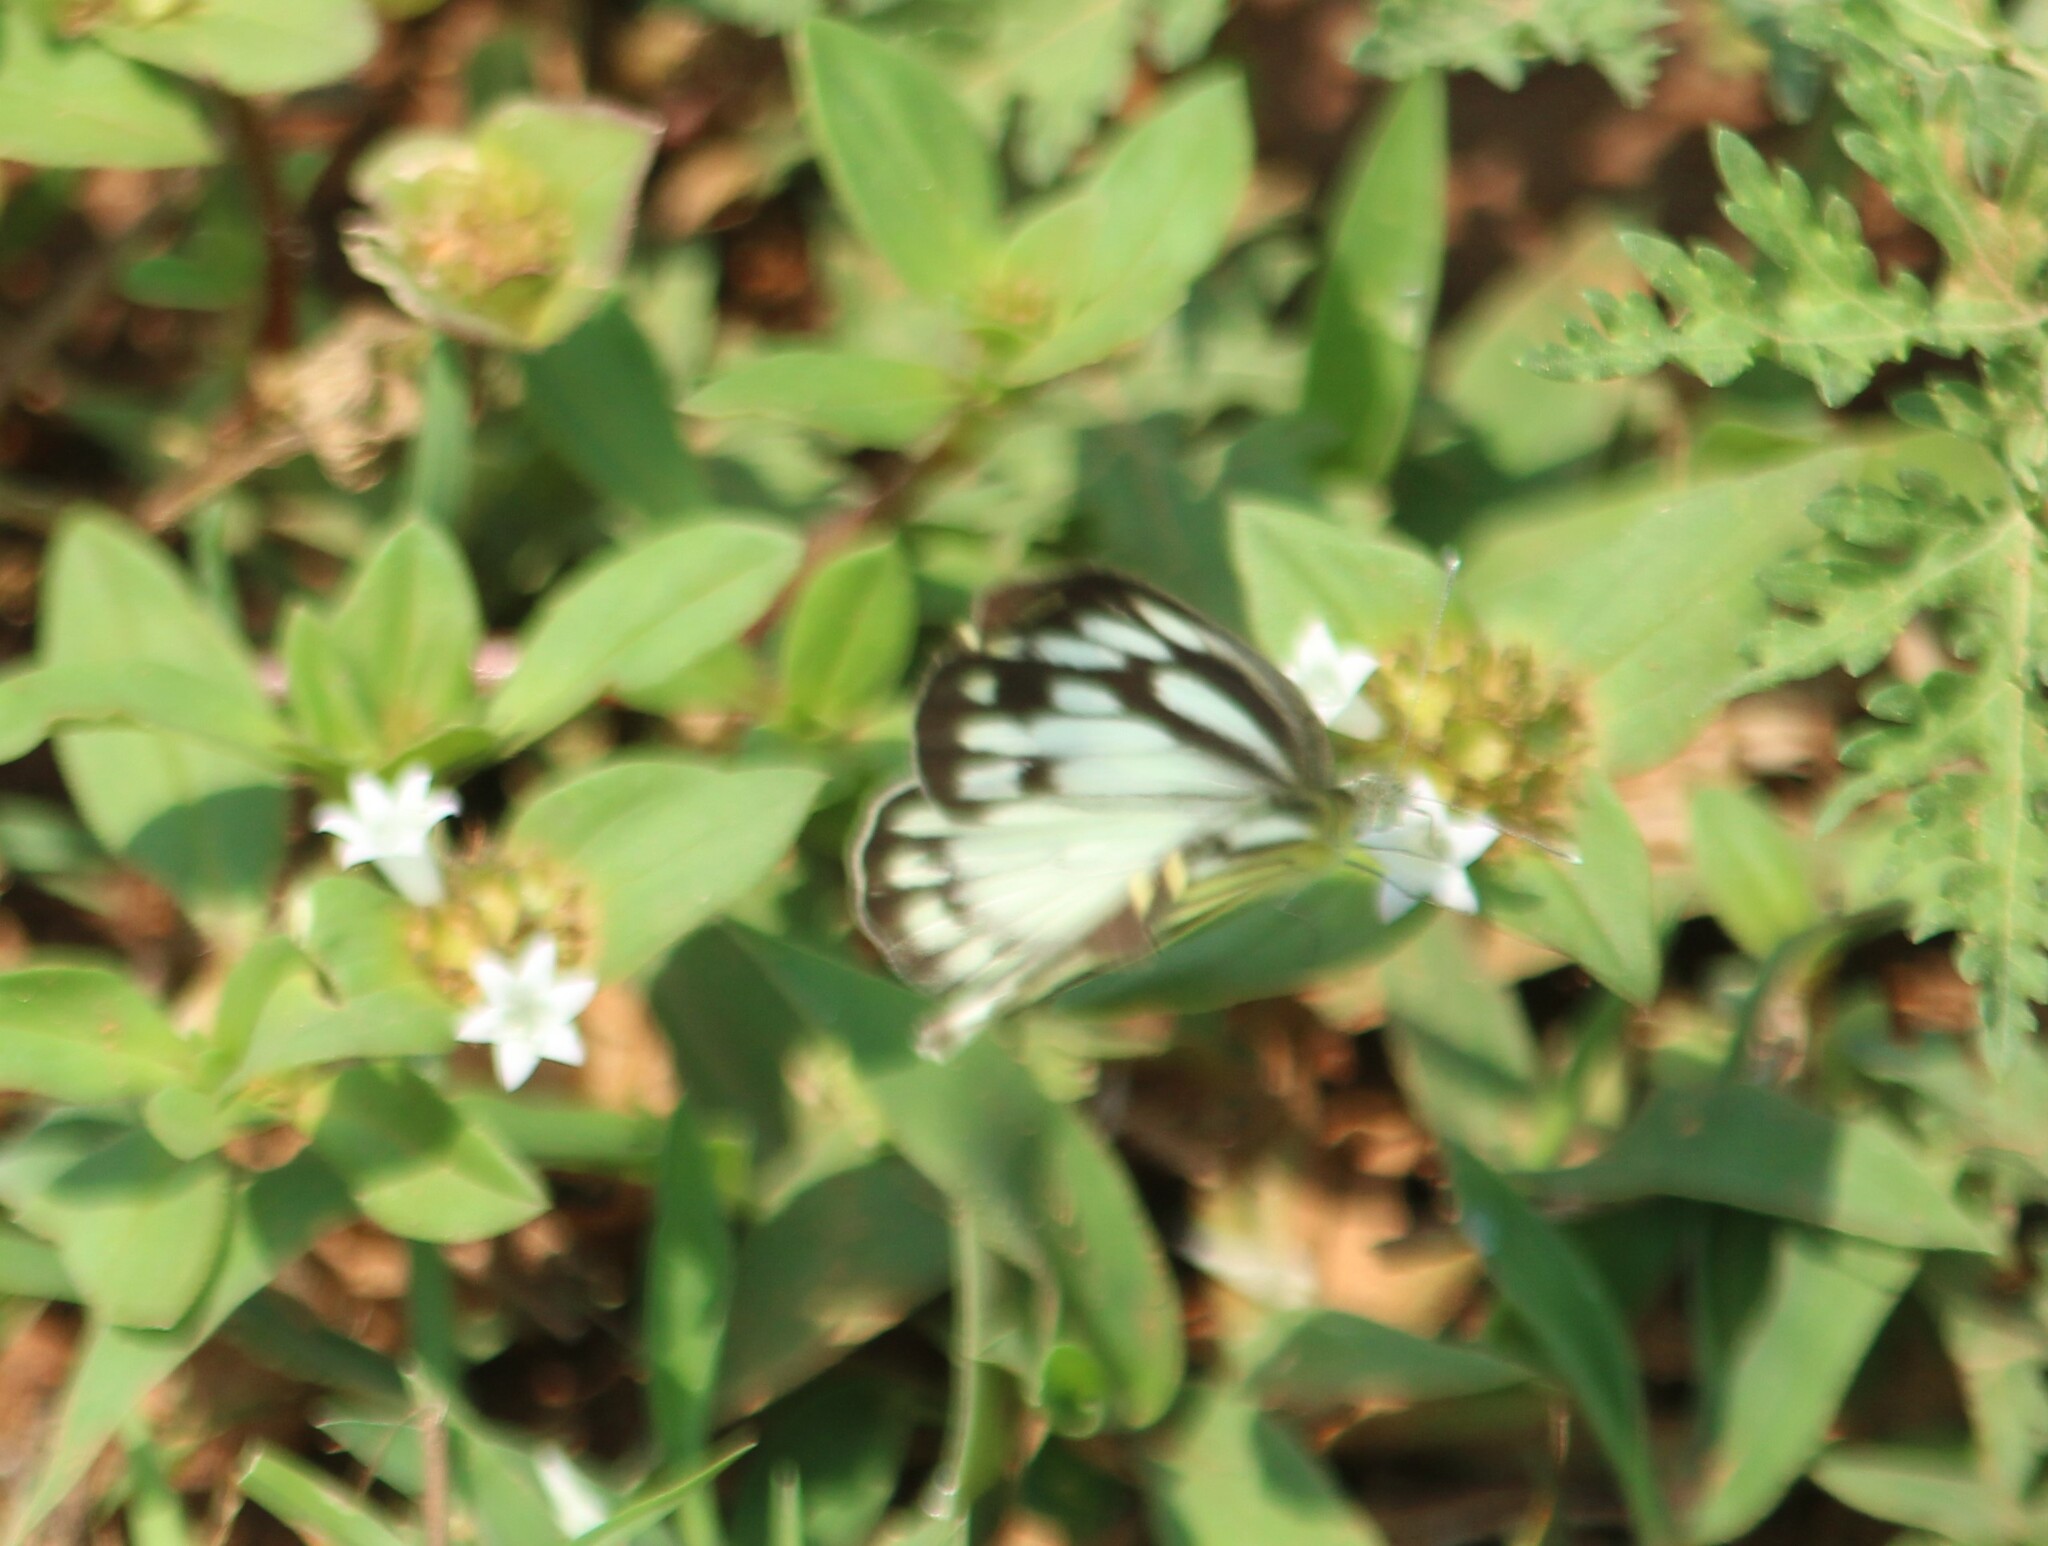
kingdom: Animalia
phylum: Arthropoda
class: Insecta
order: Lepidoptera
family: Pieridae
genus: Cepora
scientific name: Cepora nerissa
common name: Common gull
